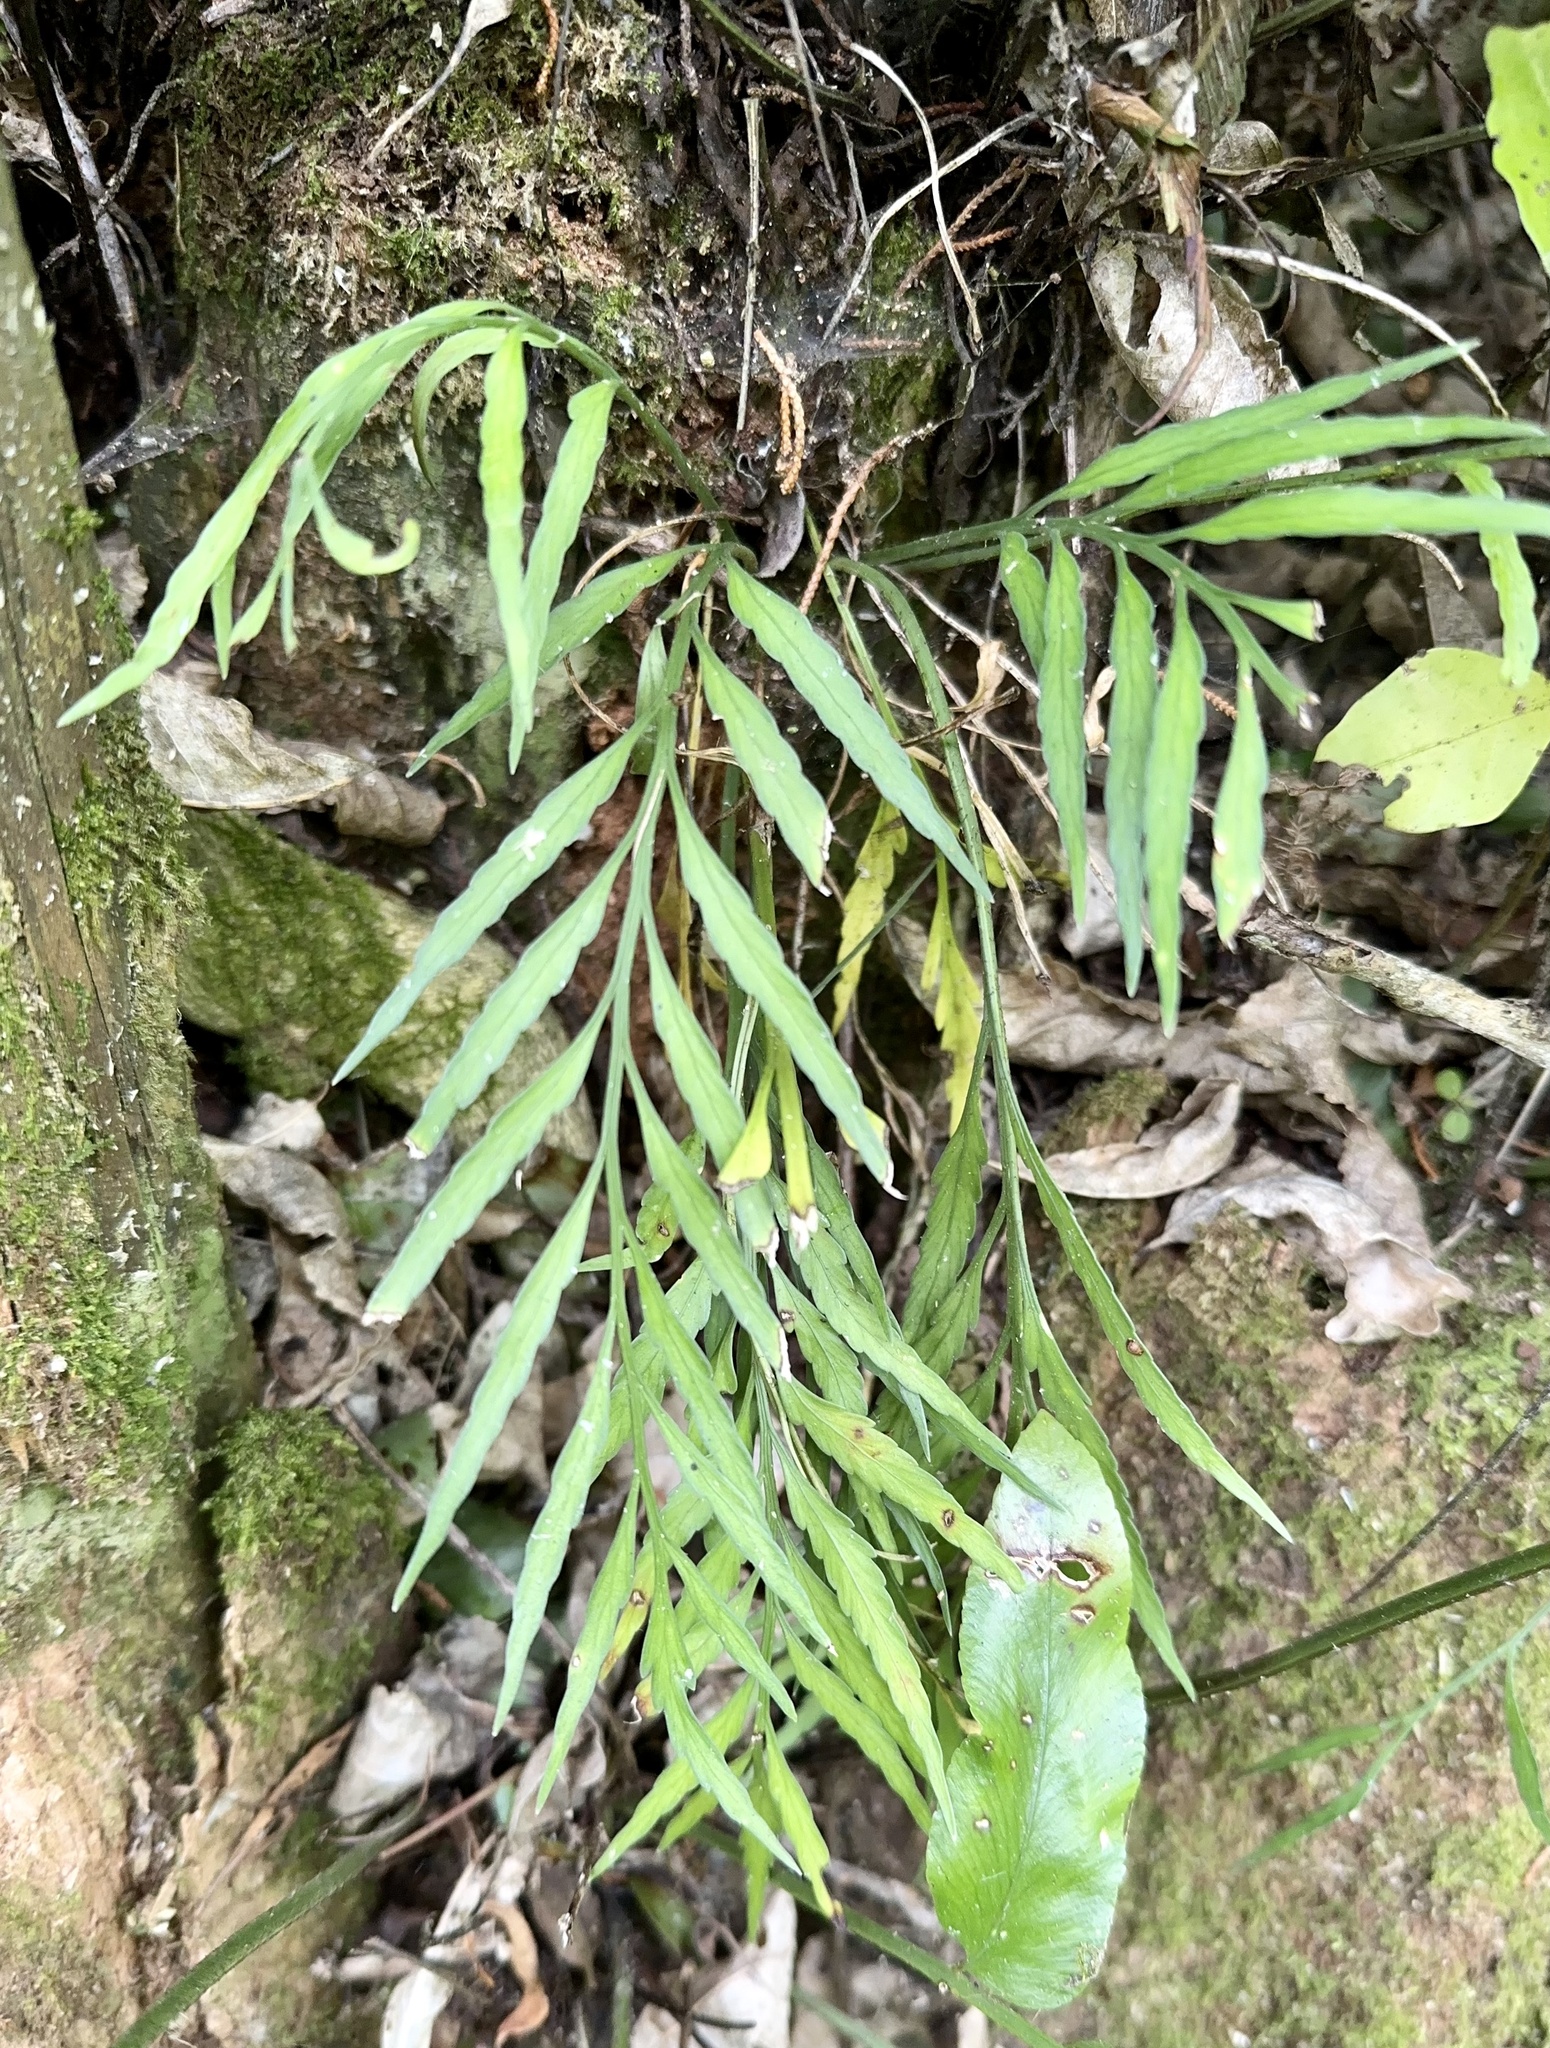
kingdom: Plantae
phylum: Tracheophyta
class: Polypodiopsida
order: Polypodiales
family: Aspleniaceae
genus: Asplenium
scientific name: Asplenium flaccidum
